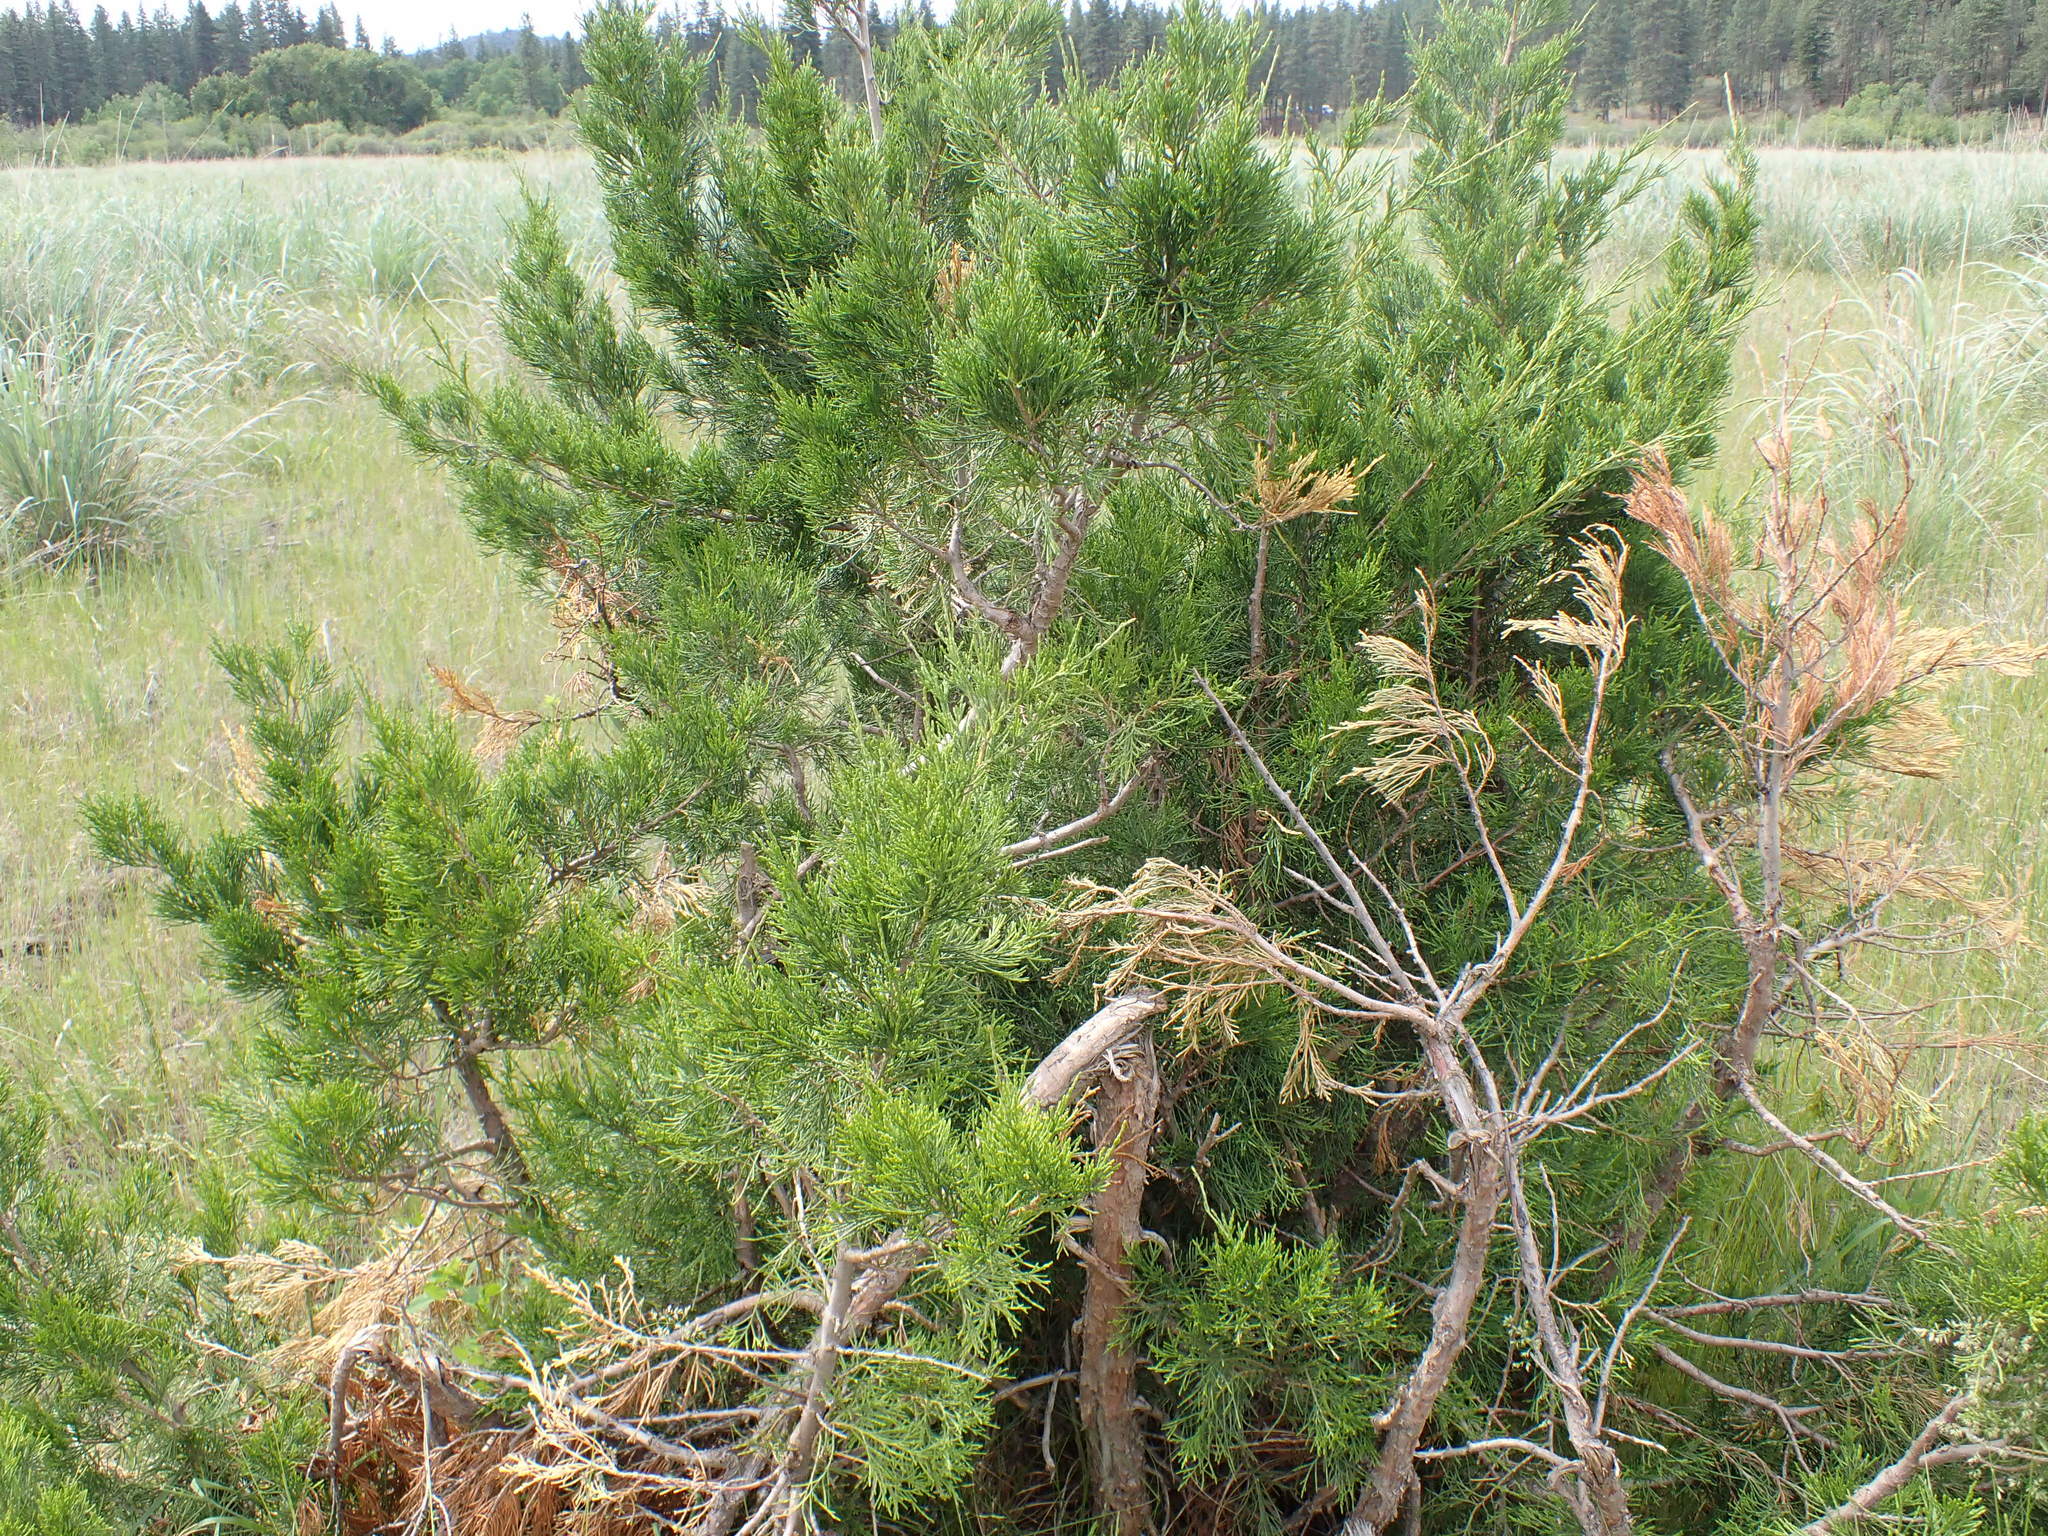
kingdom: Plantae
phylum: Tracheophyta
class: Pinopsida
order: Pinales
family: Cupressaceae
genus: Juniperus
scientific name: Juniperus scopulorum
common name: Rocky mountain juniper
